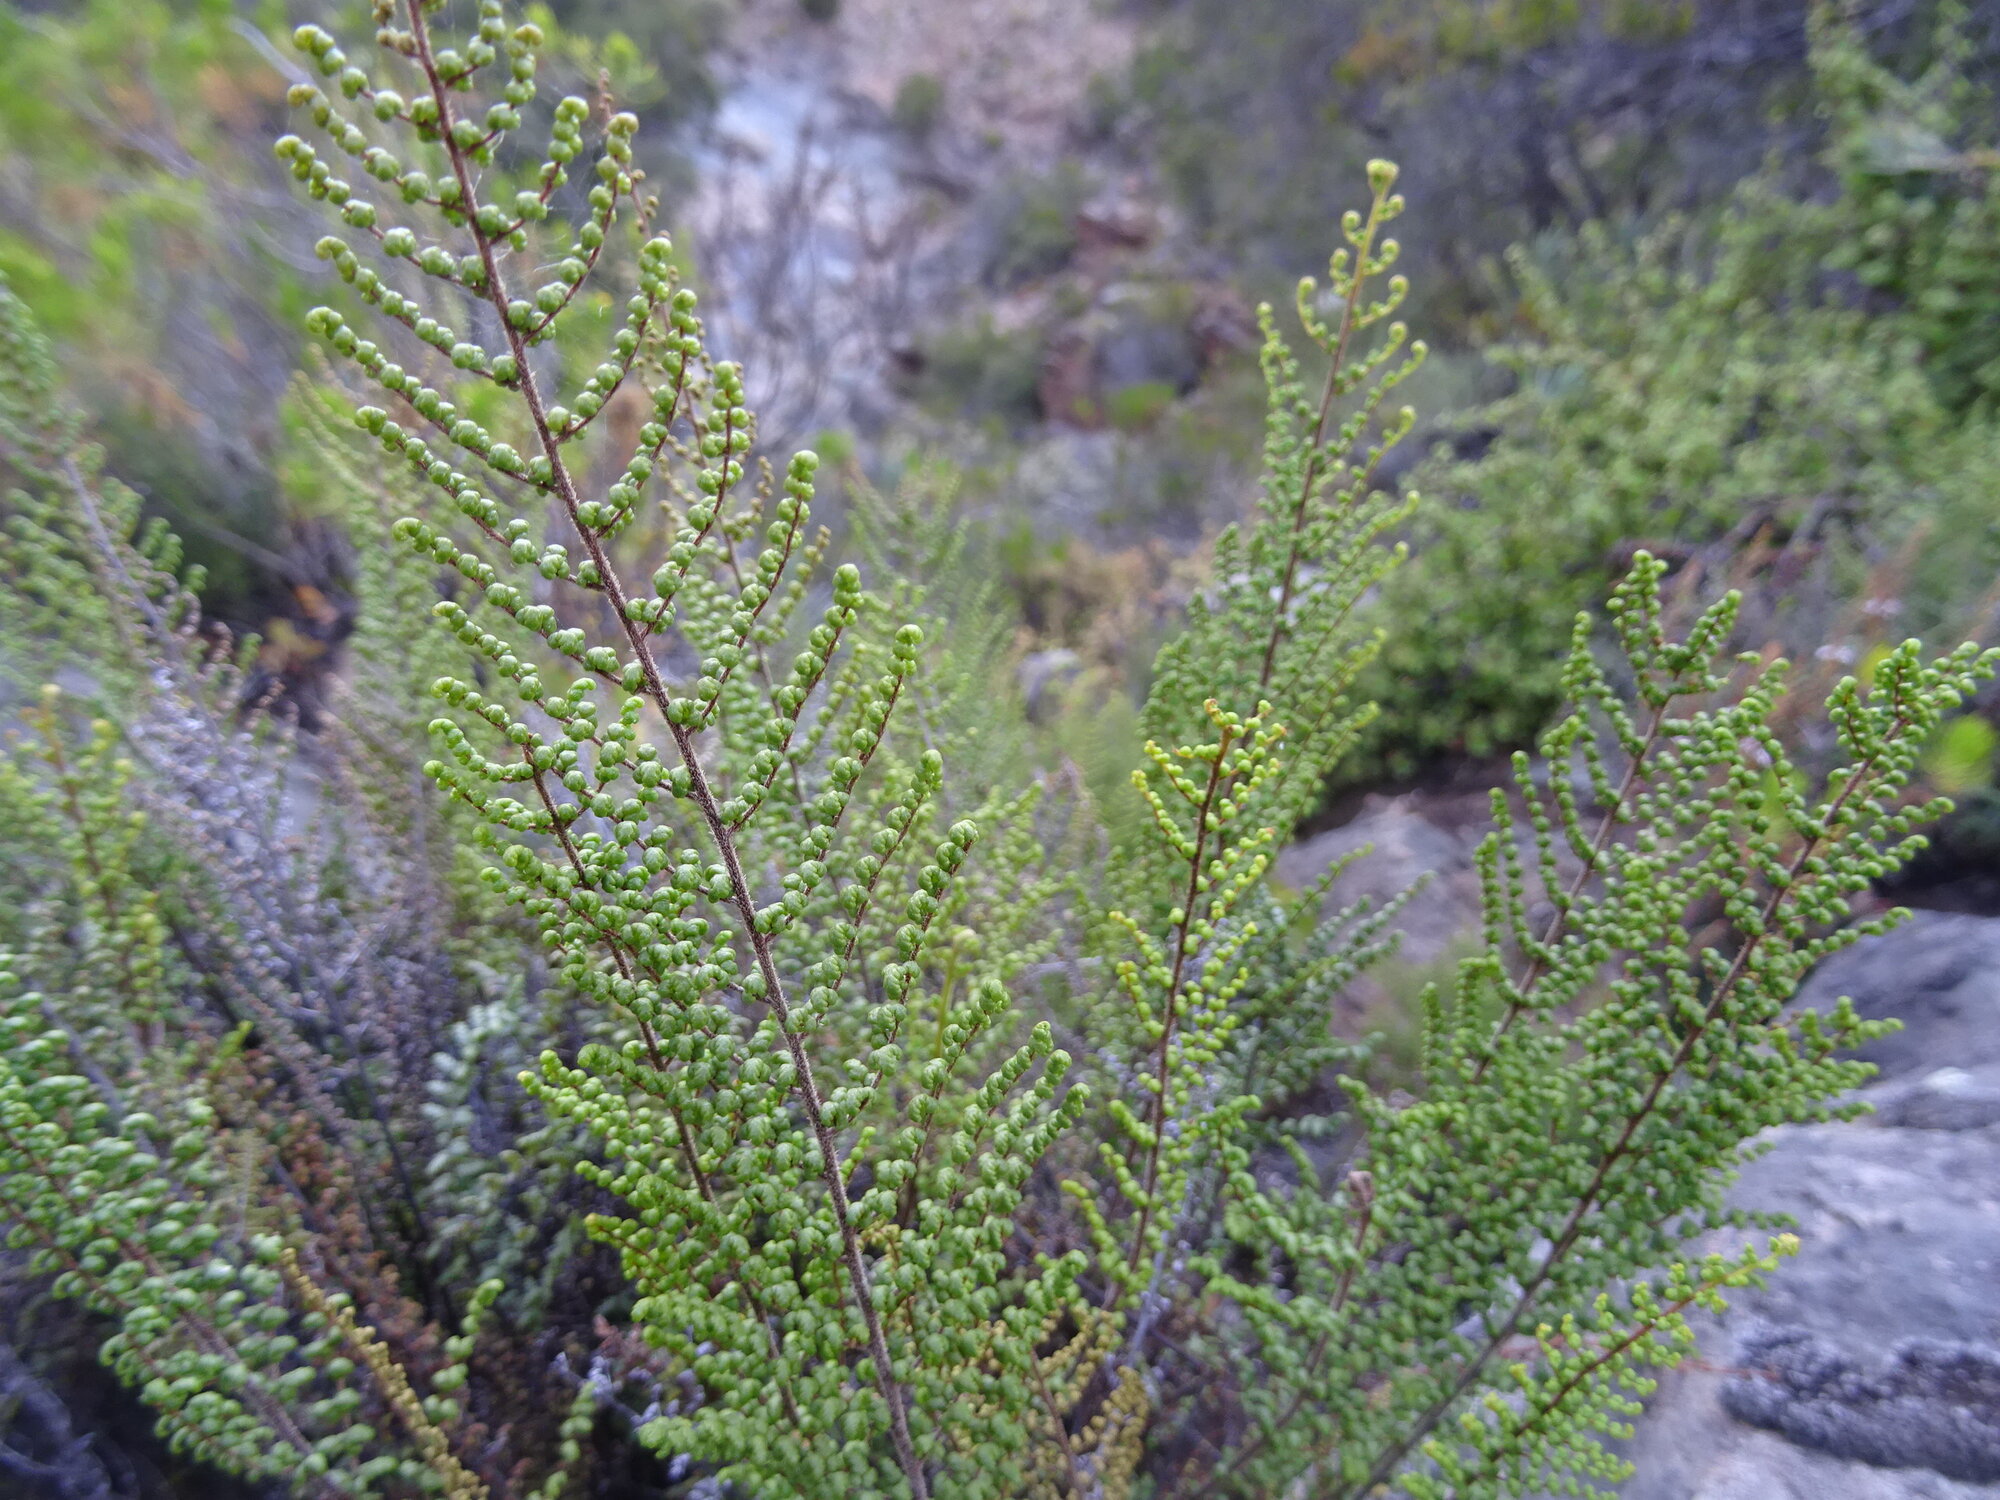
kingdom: Plantae
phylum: Tracheophyta
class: Polypodiopsida
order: Polypodiales
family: Pteridaceae
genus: Cheilanthes
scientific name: Cheilanthes parviloba
